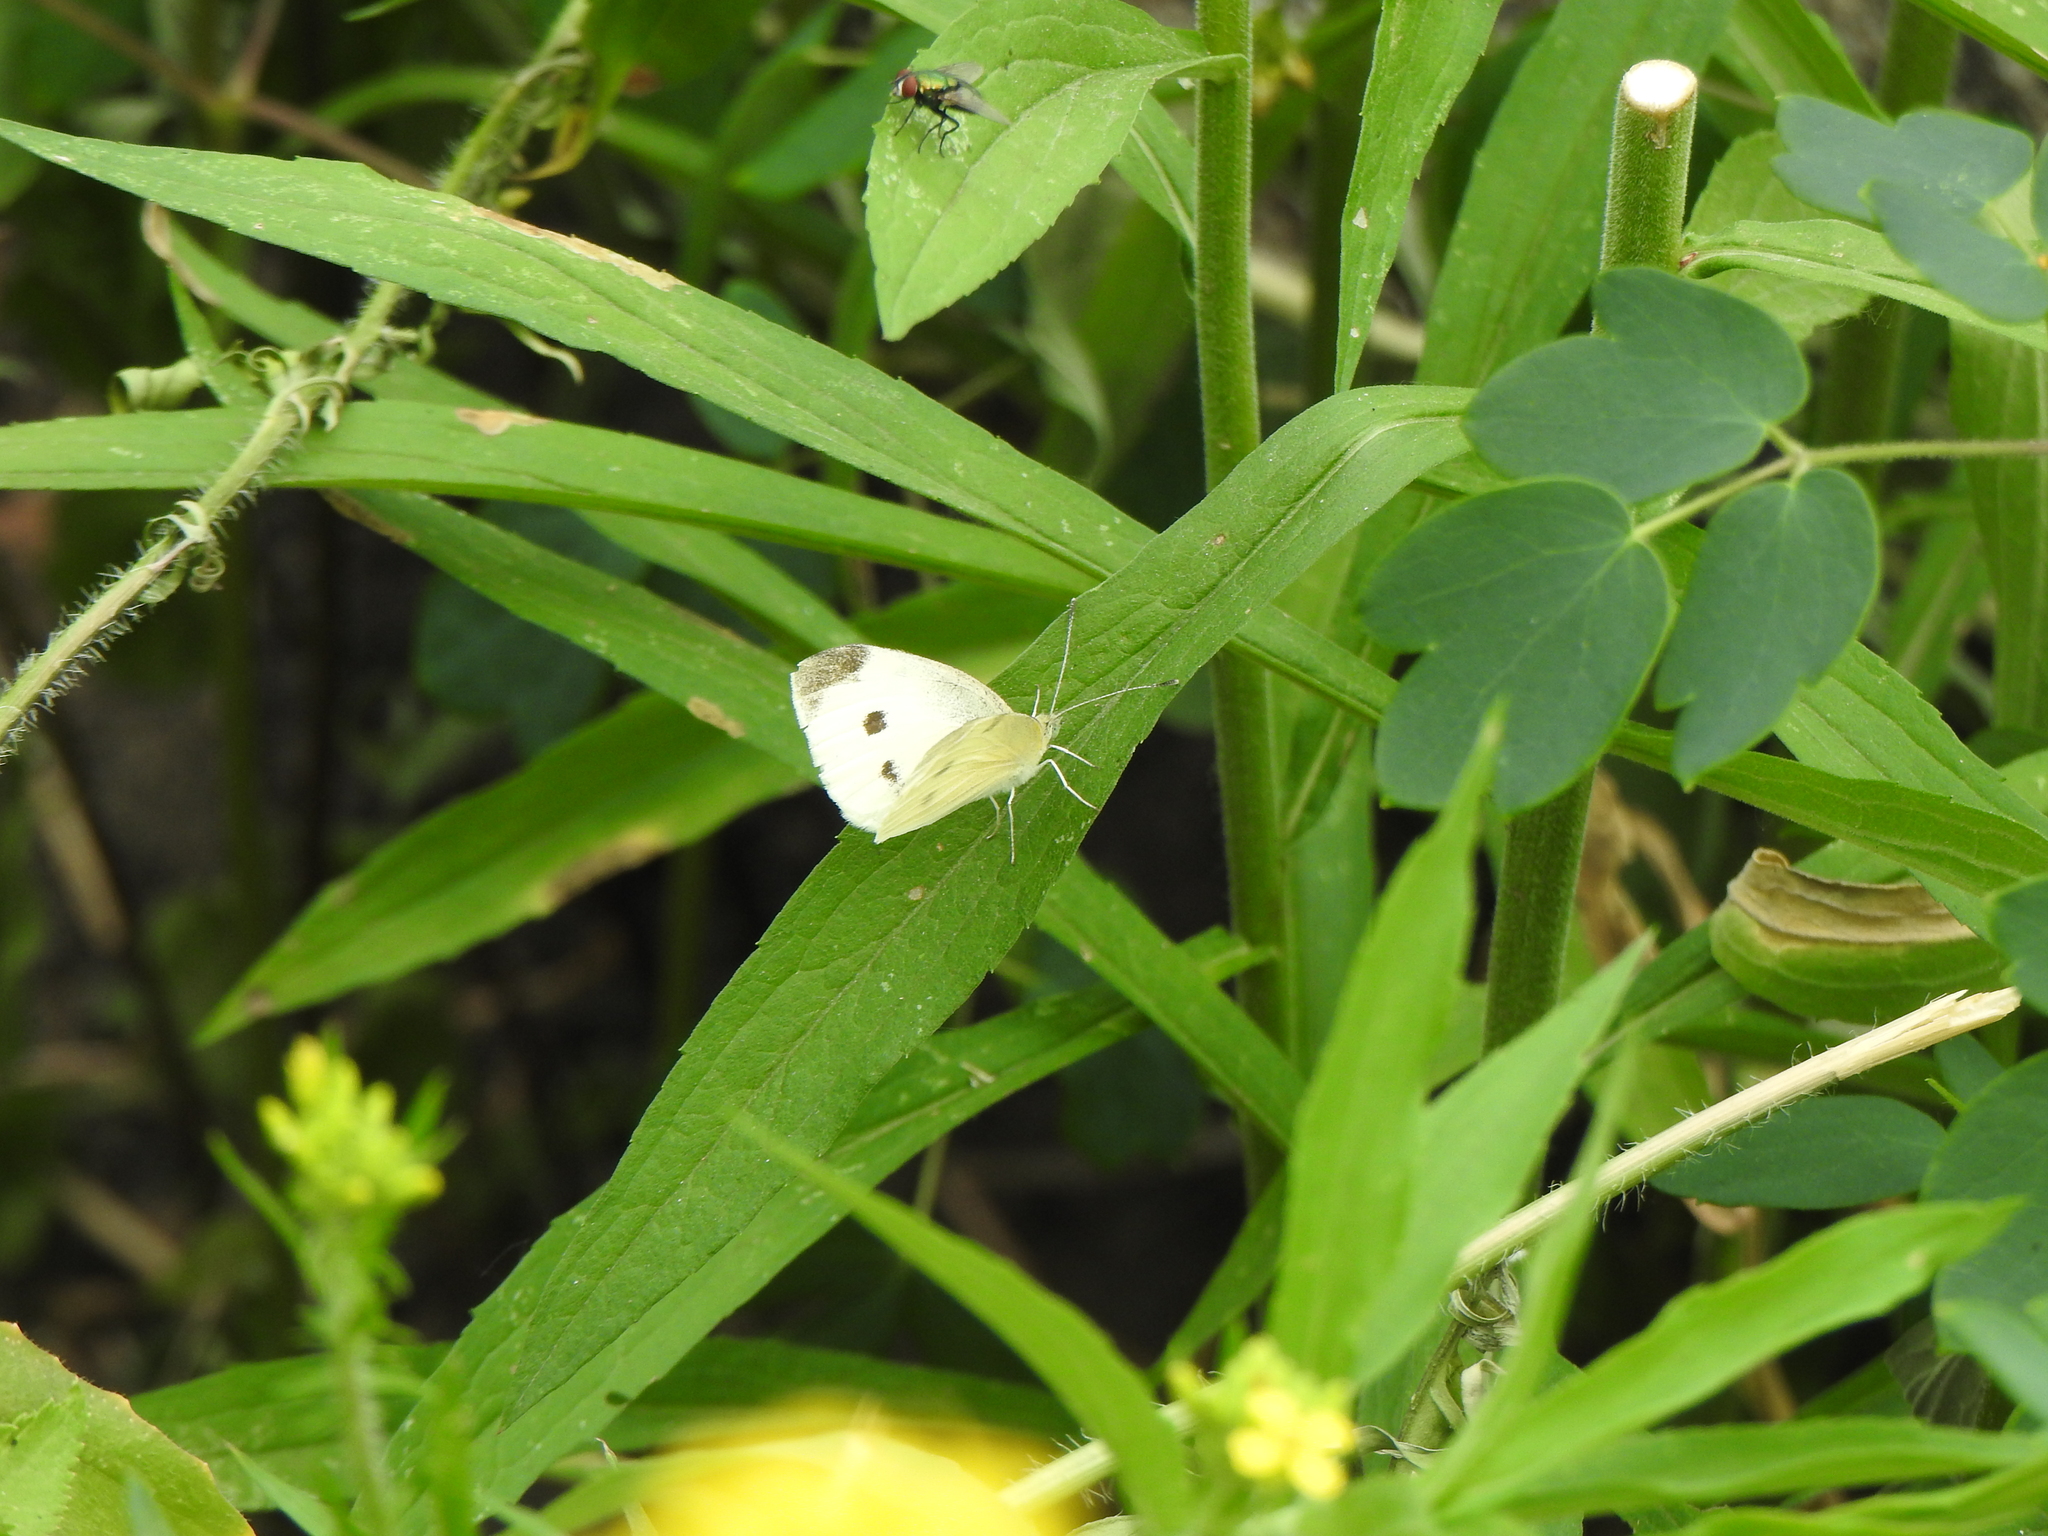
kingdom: Animalia
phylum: Arthropoda
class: Insecta
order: Lepidoptera
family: Pieridae
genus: Pieris
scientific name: Pieris rapae
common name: Small white
